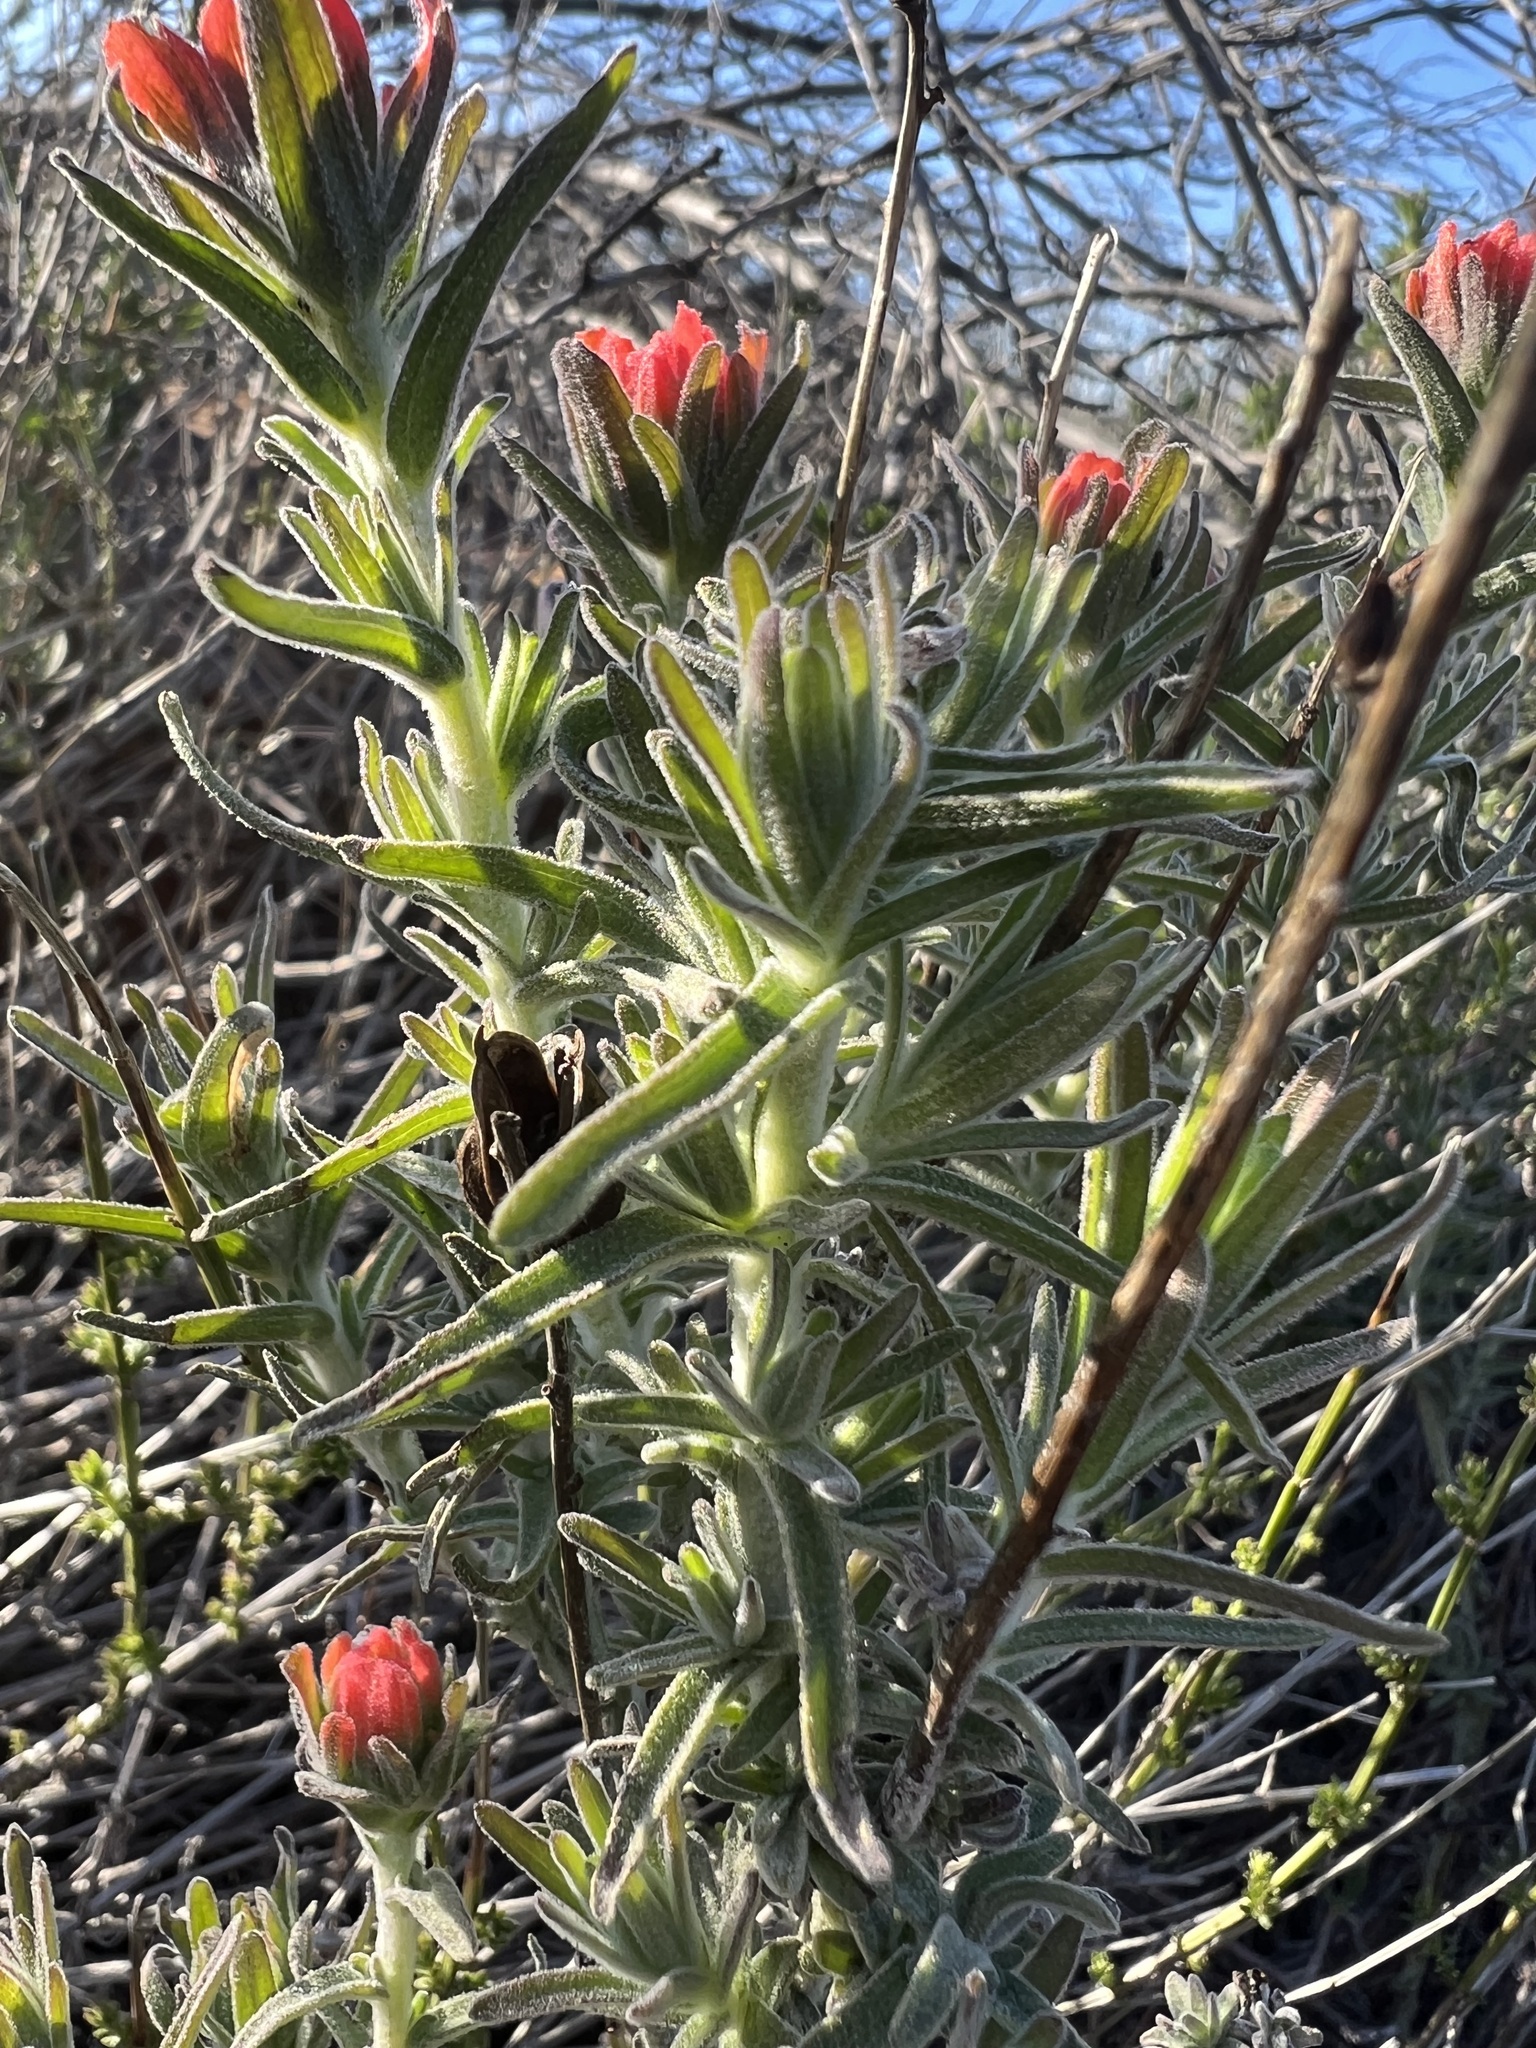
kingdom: Plantae
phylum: Tracheophyta
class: Magnoliopsida
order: Lamiales
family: Orobanchaceae
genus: Castilleja
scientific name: Castilleja foliolosa
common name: Woolly indian paintbrush
